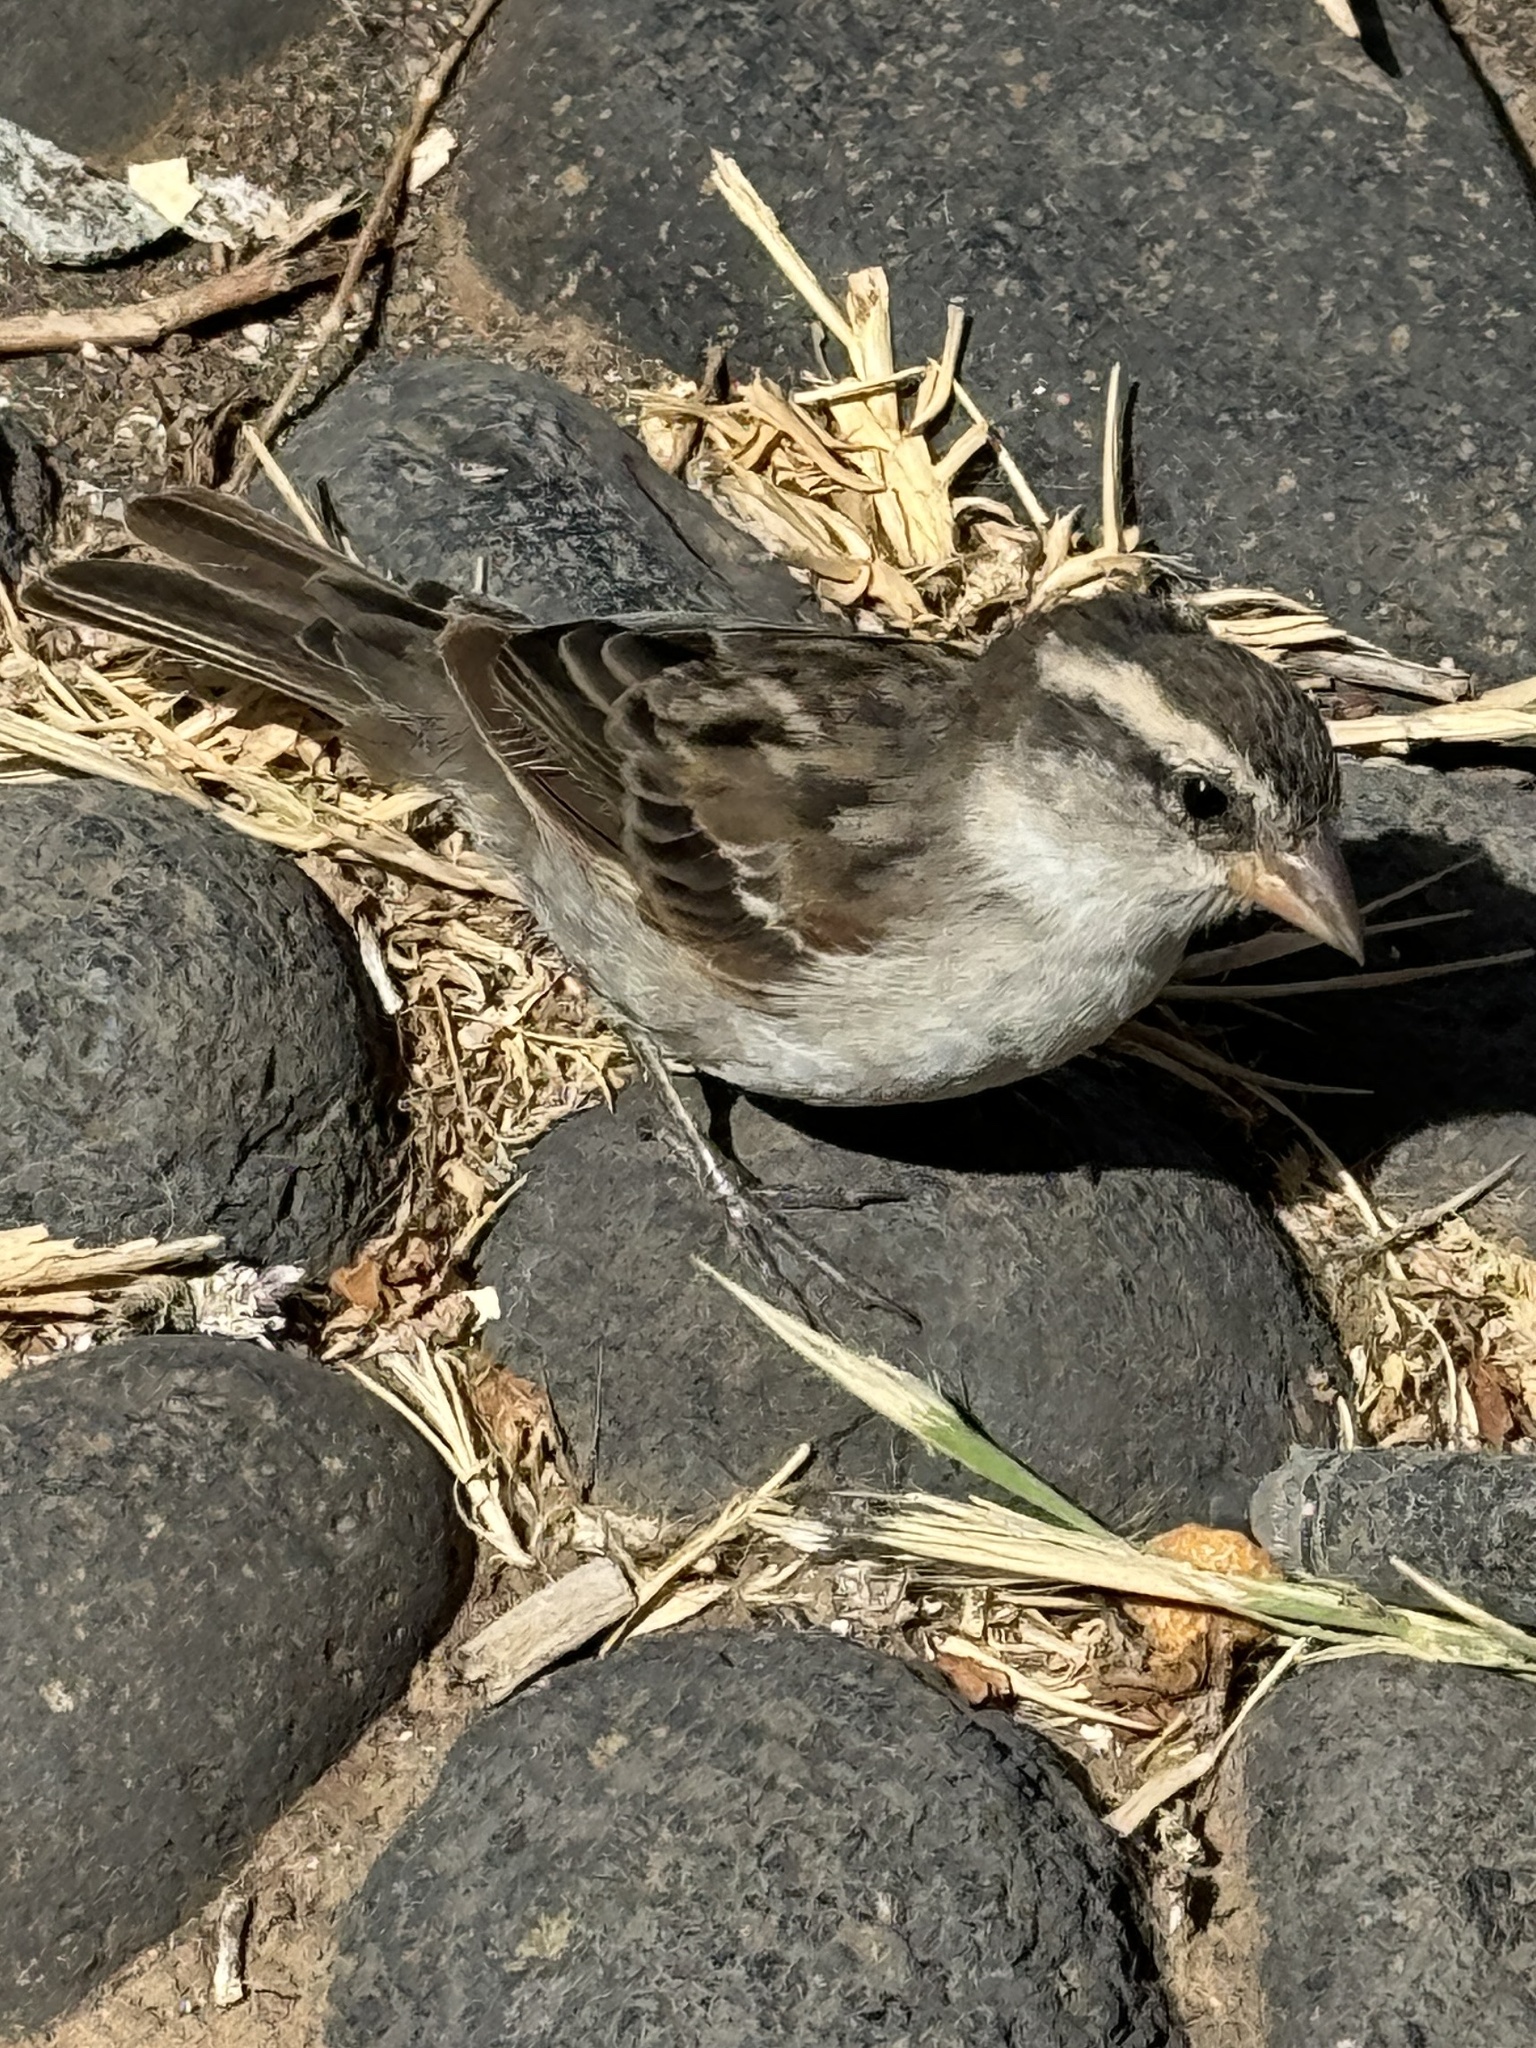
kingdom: Animalia
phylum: Chordata
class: Aves
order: Passeriformes
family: Passeridae
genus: Passer
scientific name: Passer iagoensis
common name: Iago sparrow
